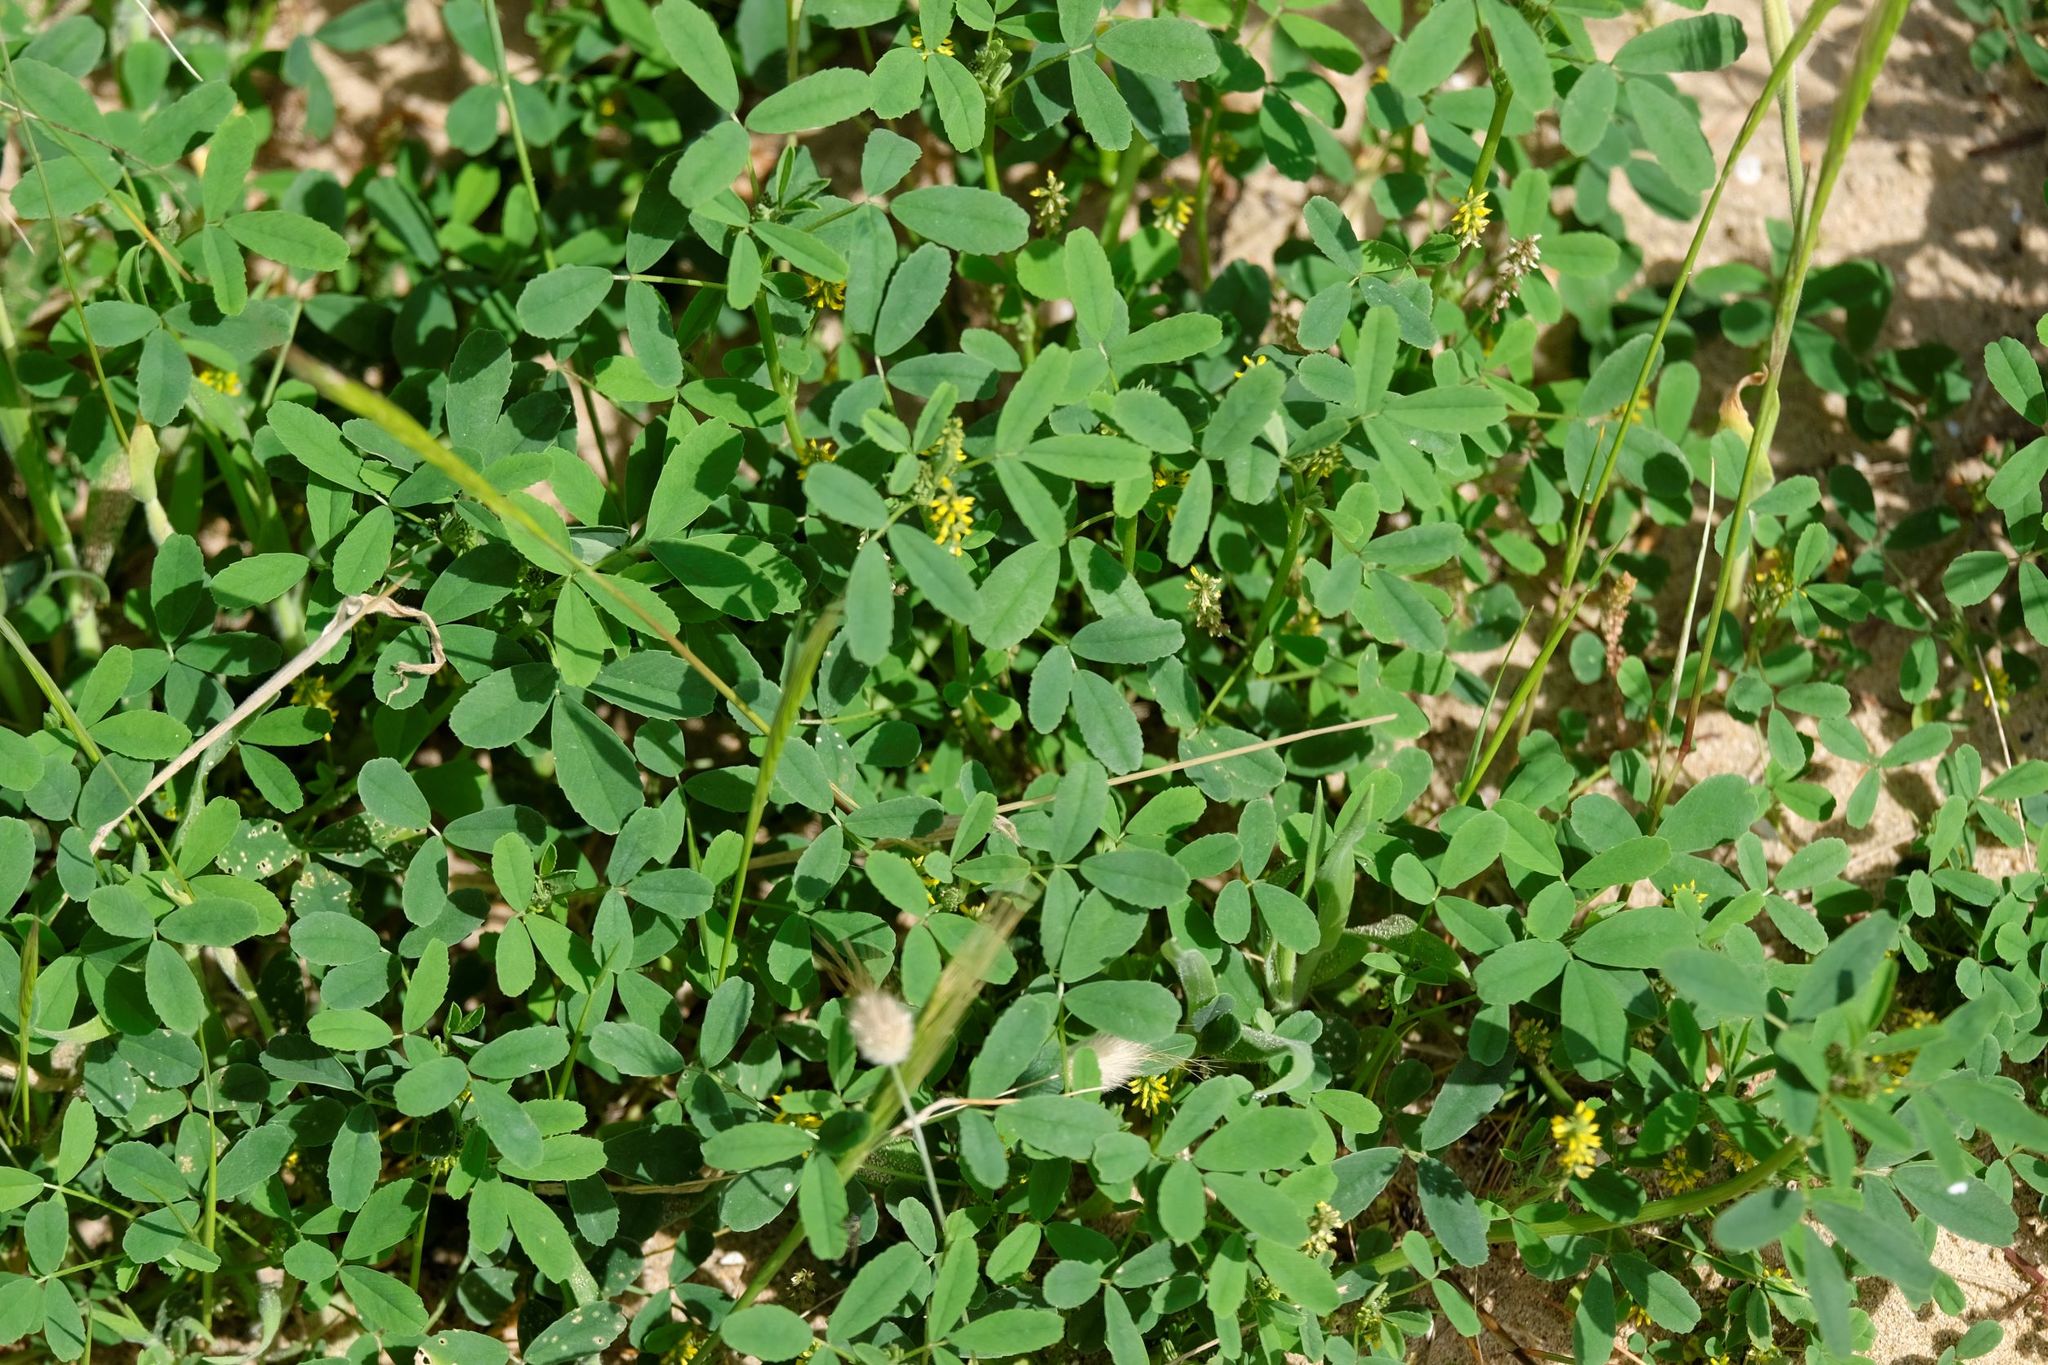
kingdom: Plantae
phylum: Tracheophyta
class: Magnoliopsida
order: Fabales
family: Fabaceae
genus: Melilotus
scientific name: Melilotus indicus
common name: Small melilot
